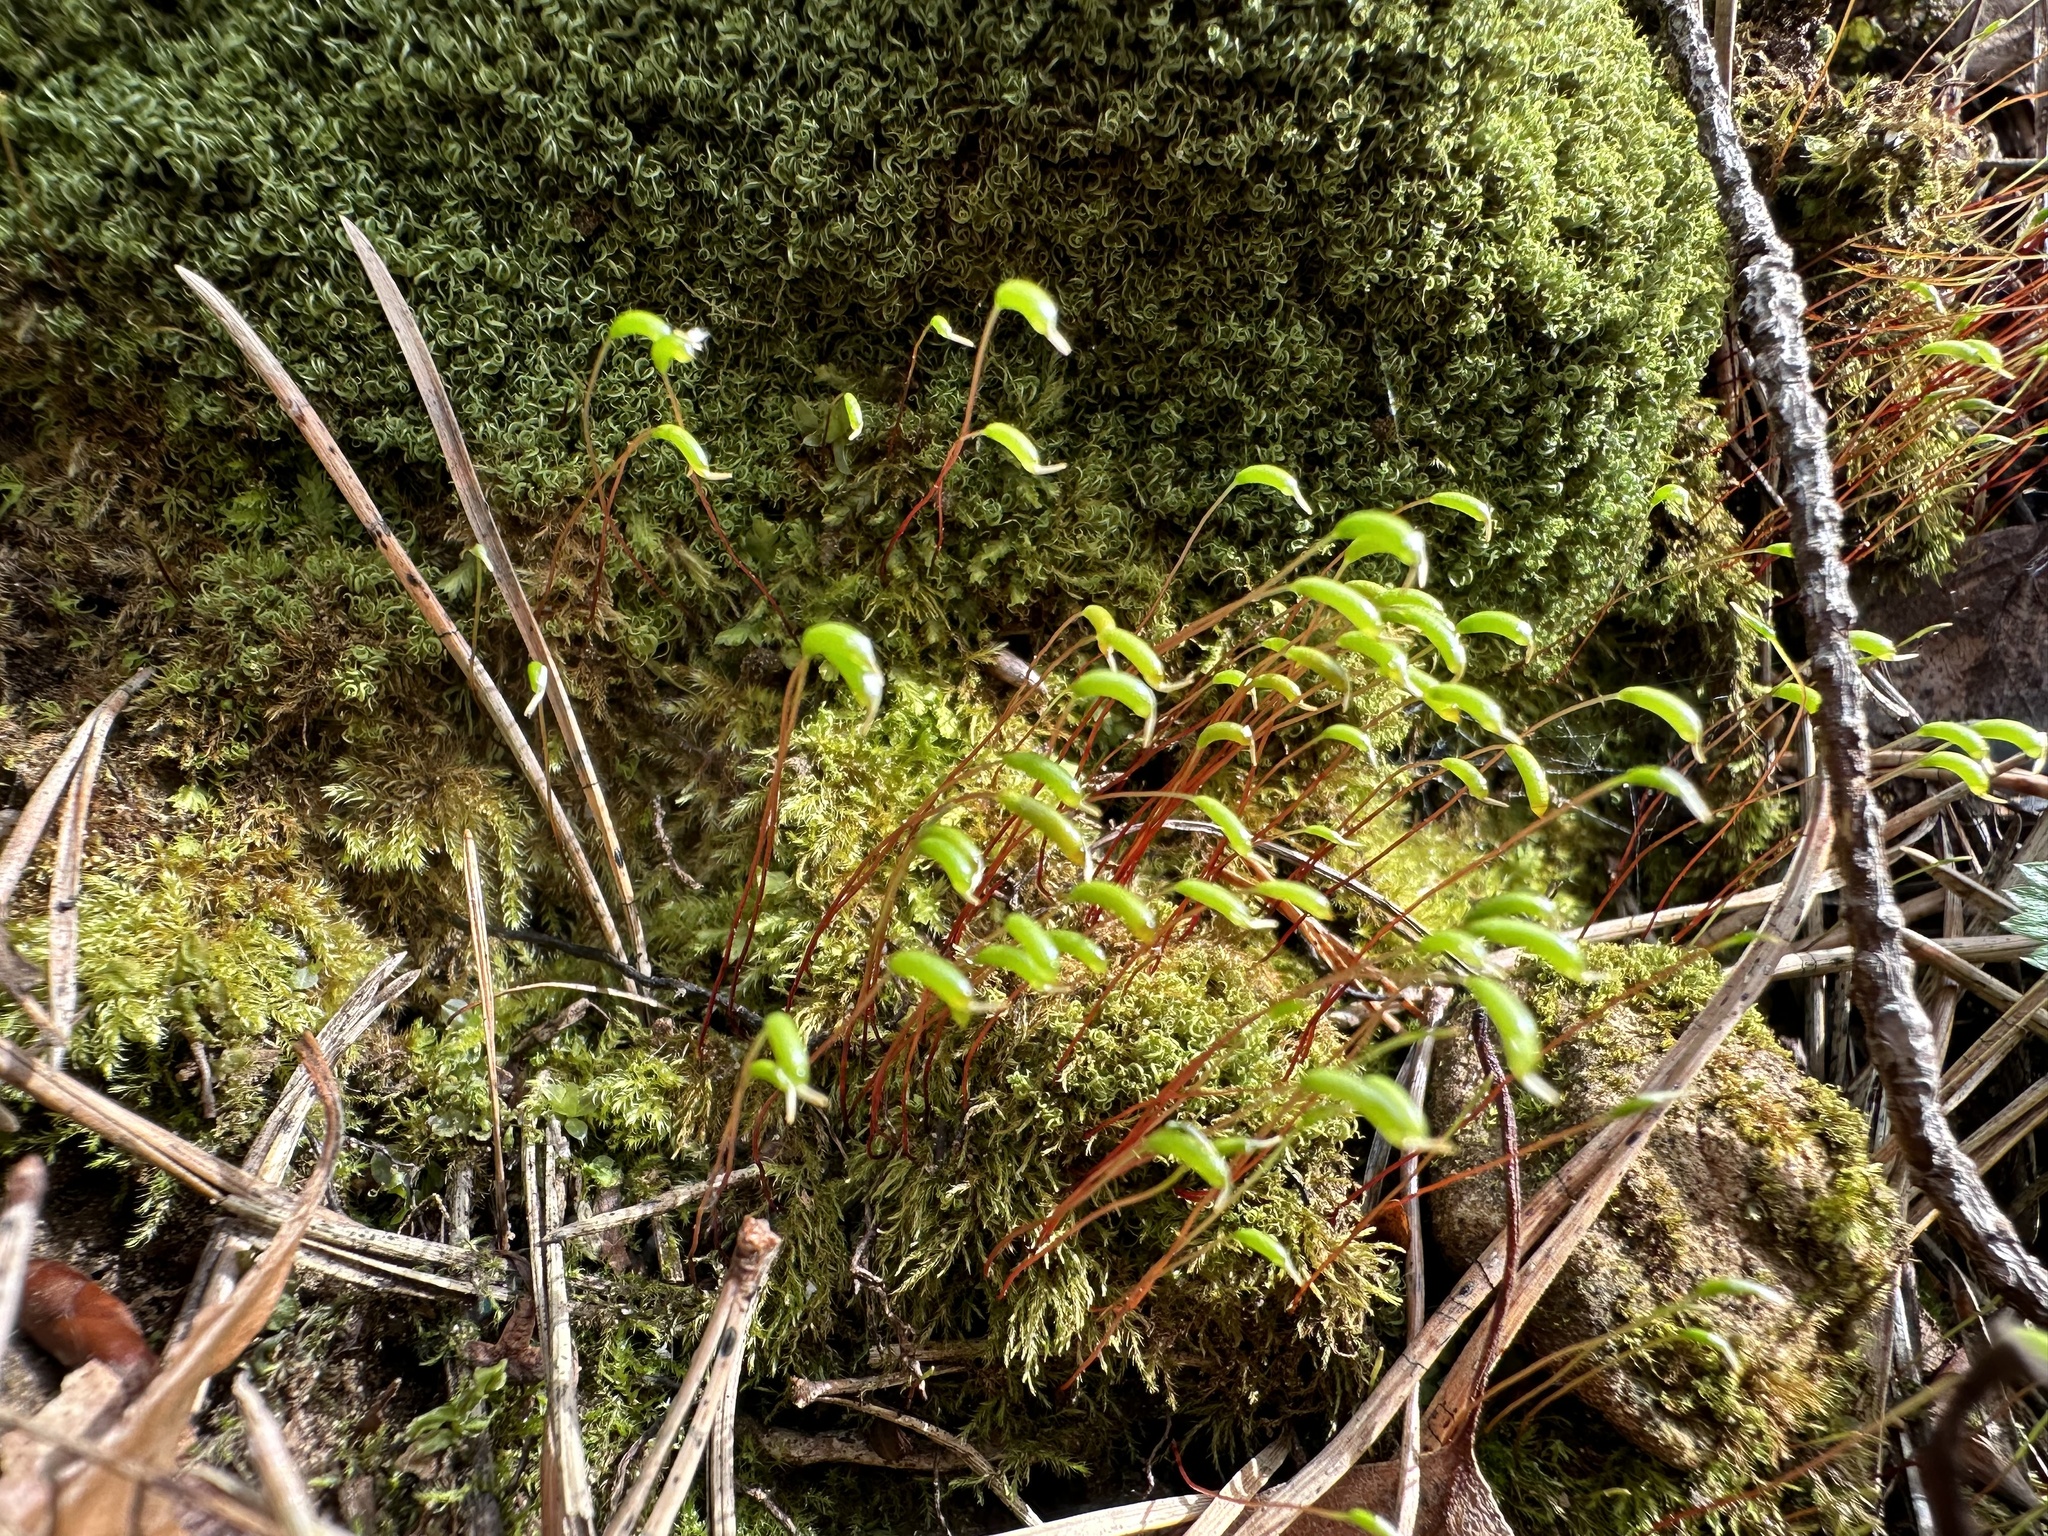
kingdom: Plantae
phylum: Bryophyta
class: Bryopsida
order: Hypnales
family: Amblystegiaceae
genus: Amblystegium
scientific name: Amblystegium serpens
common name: Jurkatzka's feather moss
